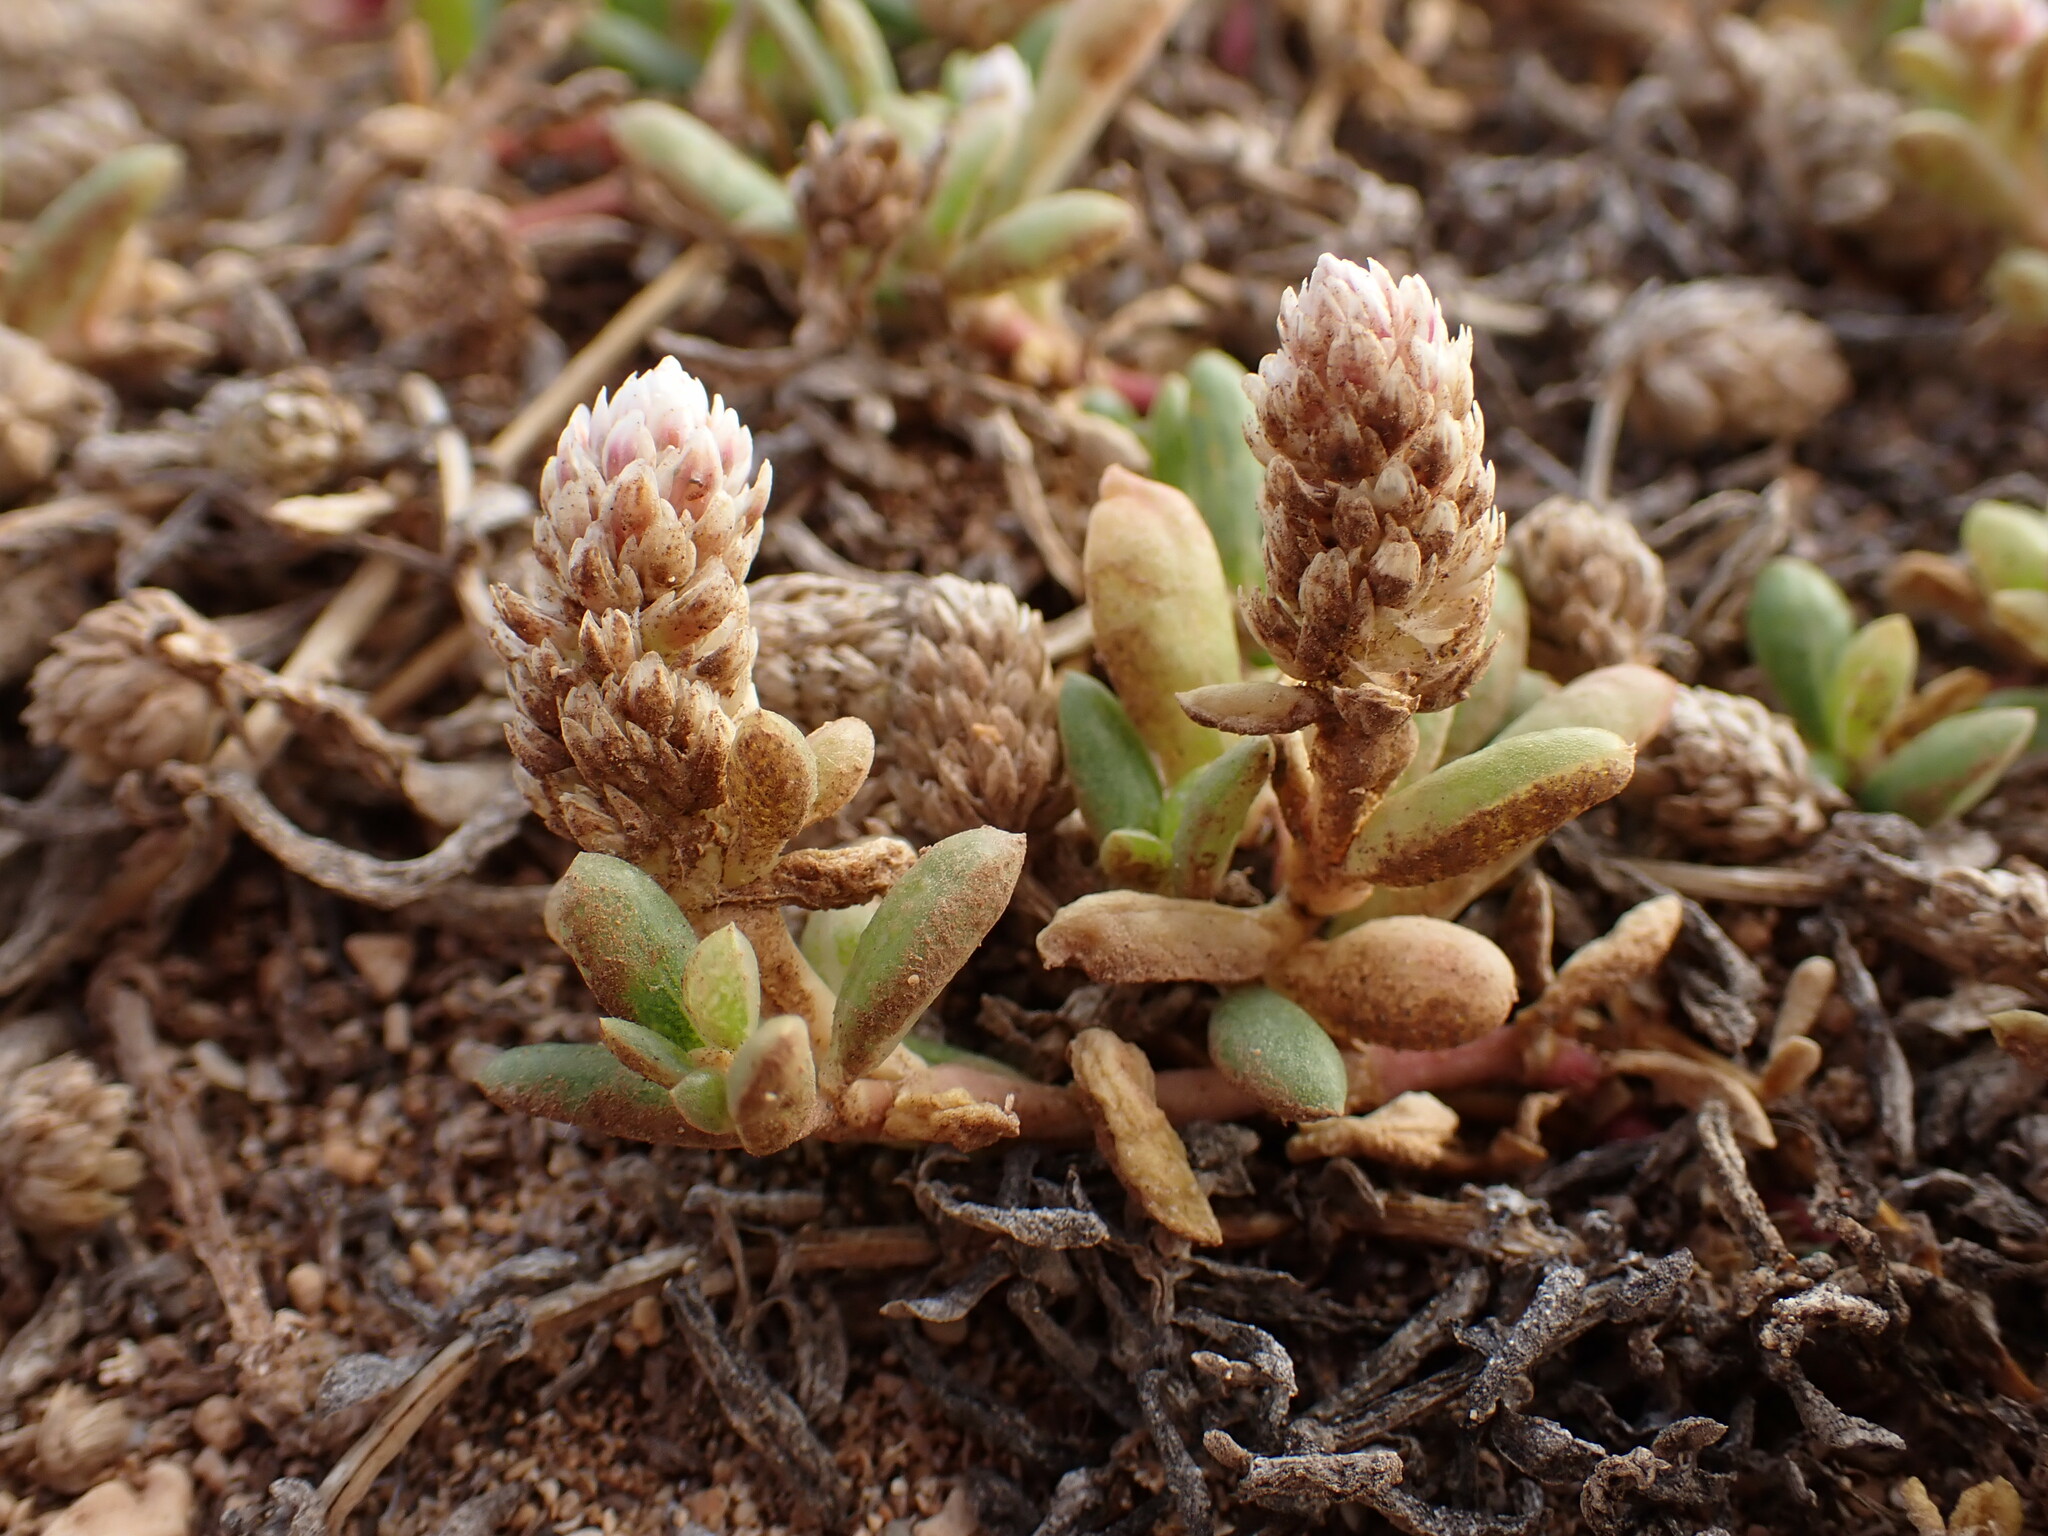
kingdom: Plantae
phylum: Tracheophyta
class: Magnoliopsida
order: Caryophyllales
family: Amaranthaceae
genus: Gomphrena
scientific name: Gomphrena vermicularis
